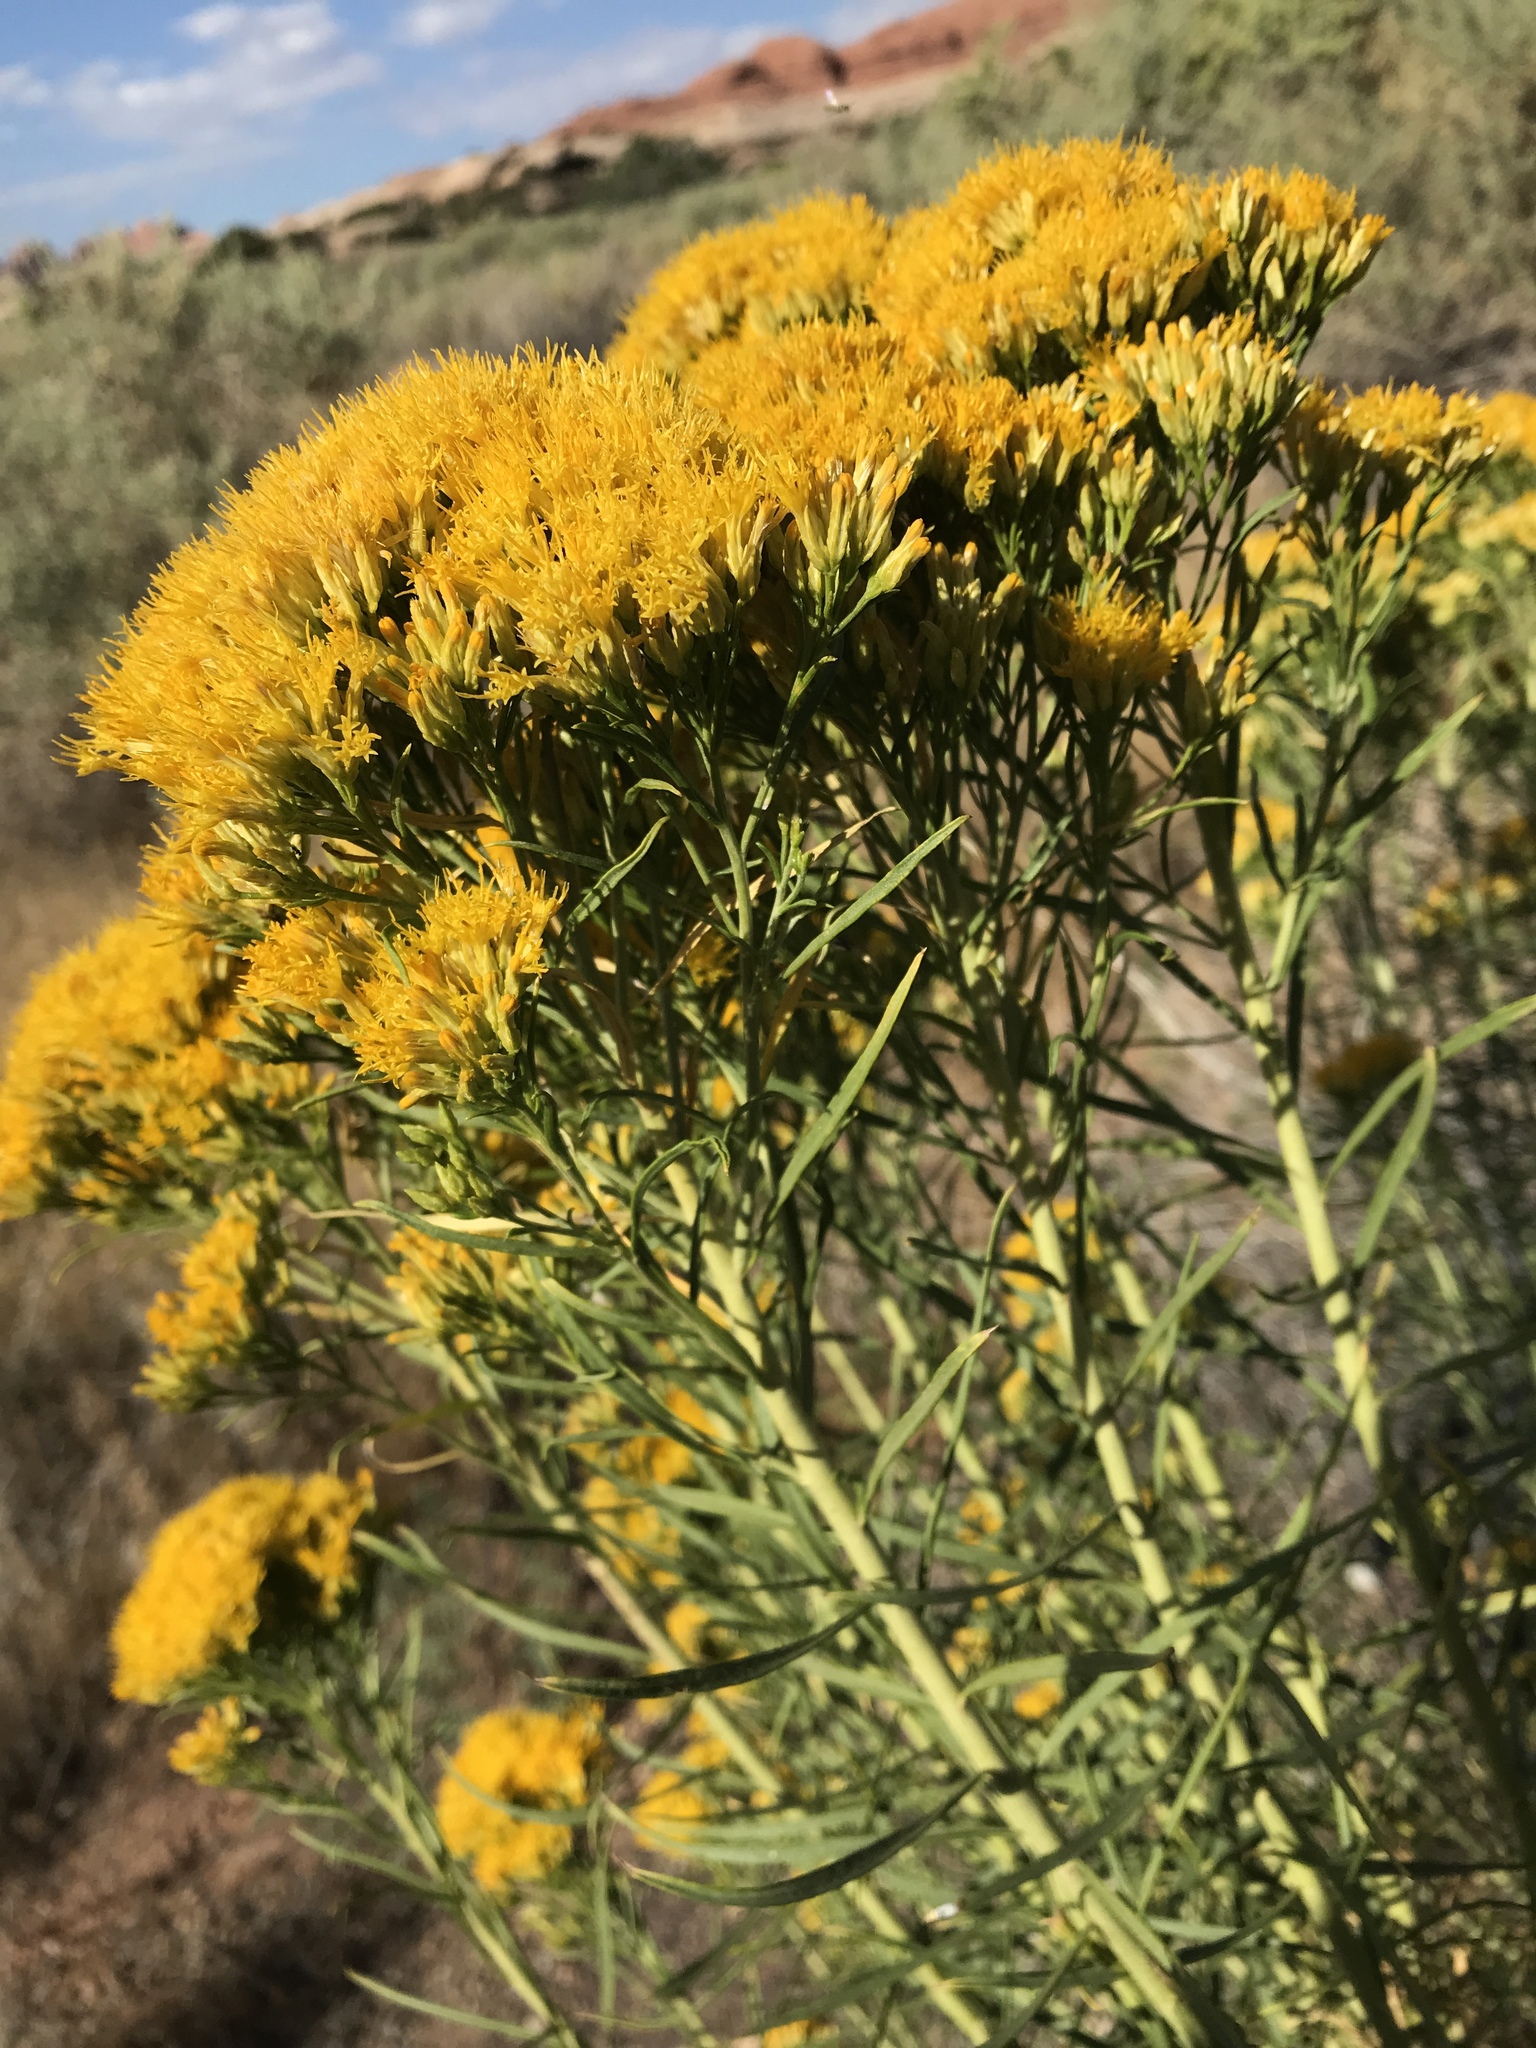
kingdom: Plantae
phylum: Tracheophyta
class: Magnoliopsida
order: Asterales
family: Asteraceae
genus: Ericameria
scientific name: Ericameria nauseosa
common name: Rubber rabbitbrush
